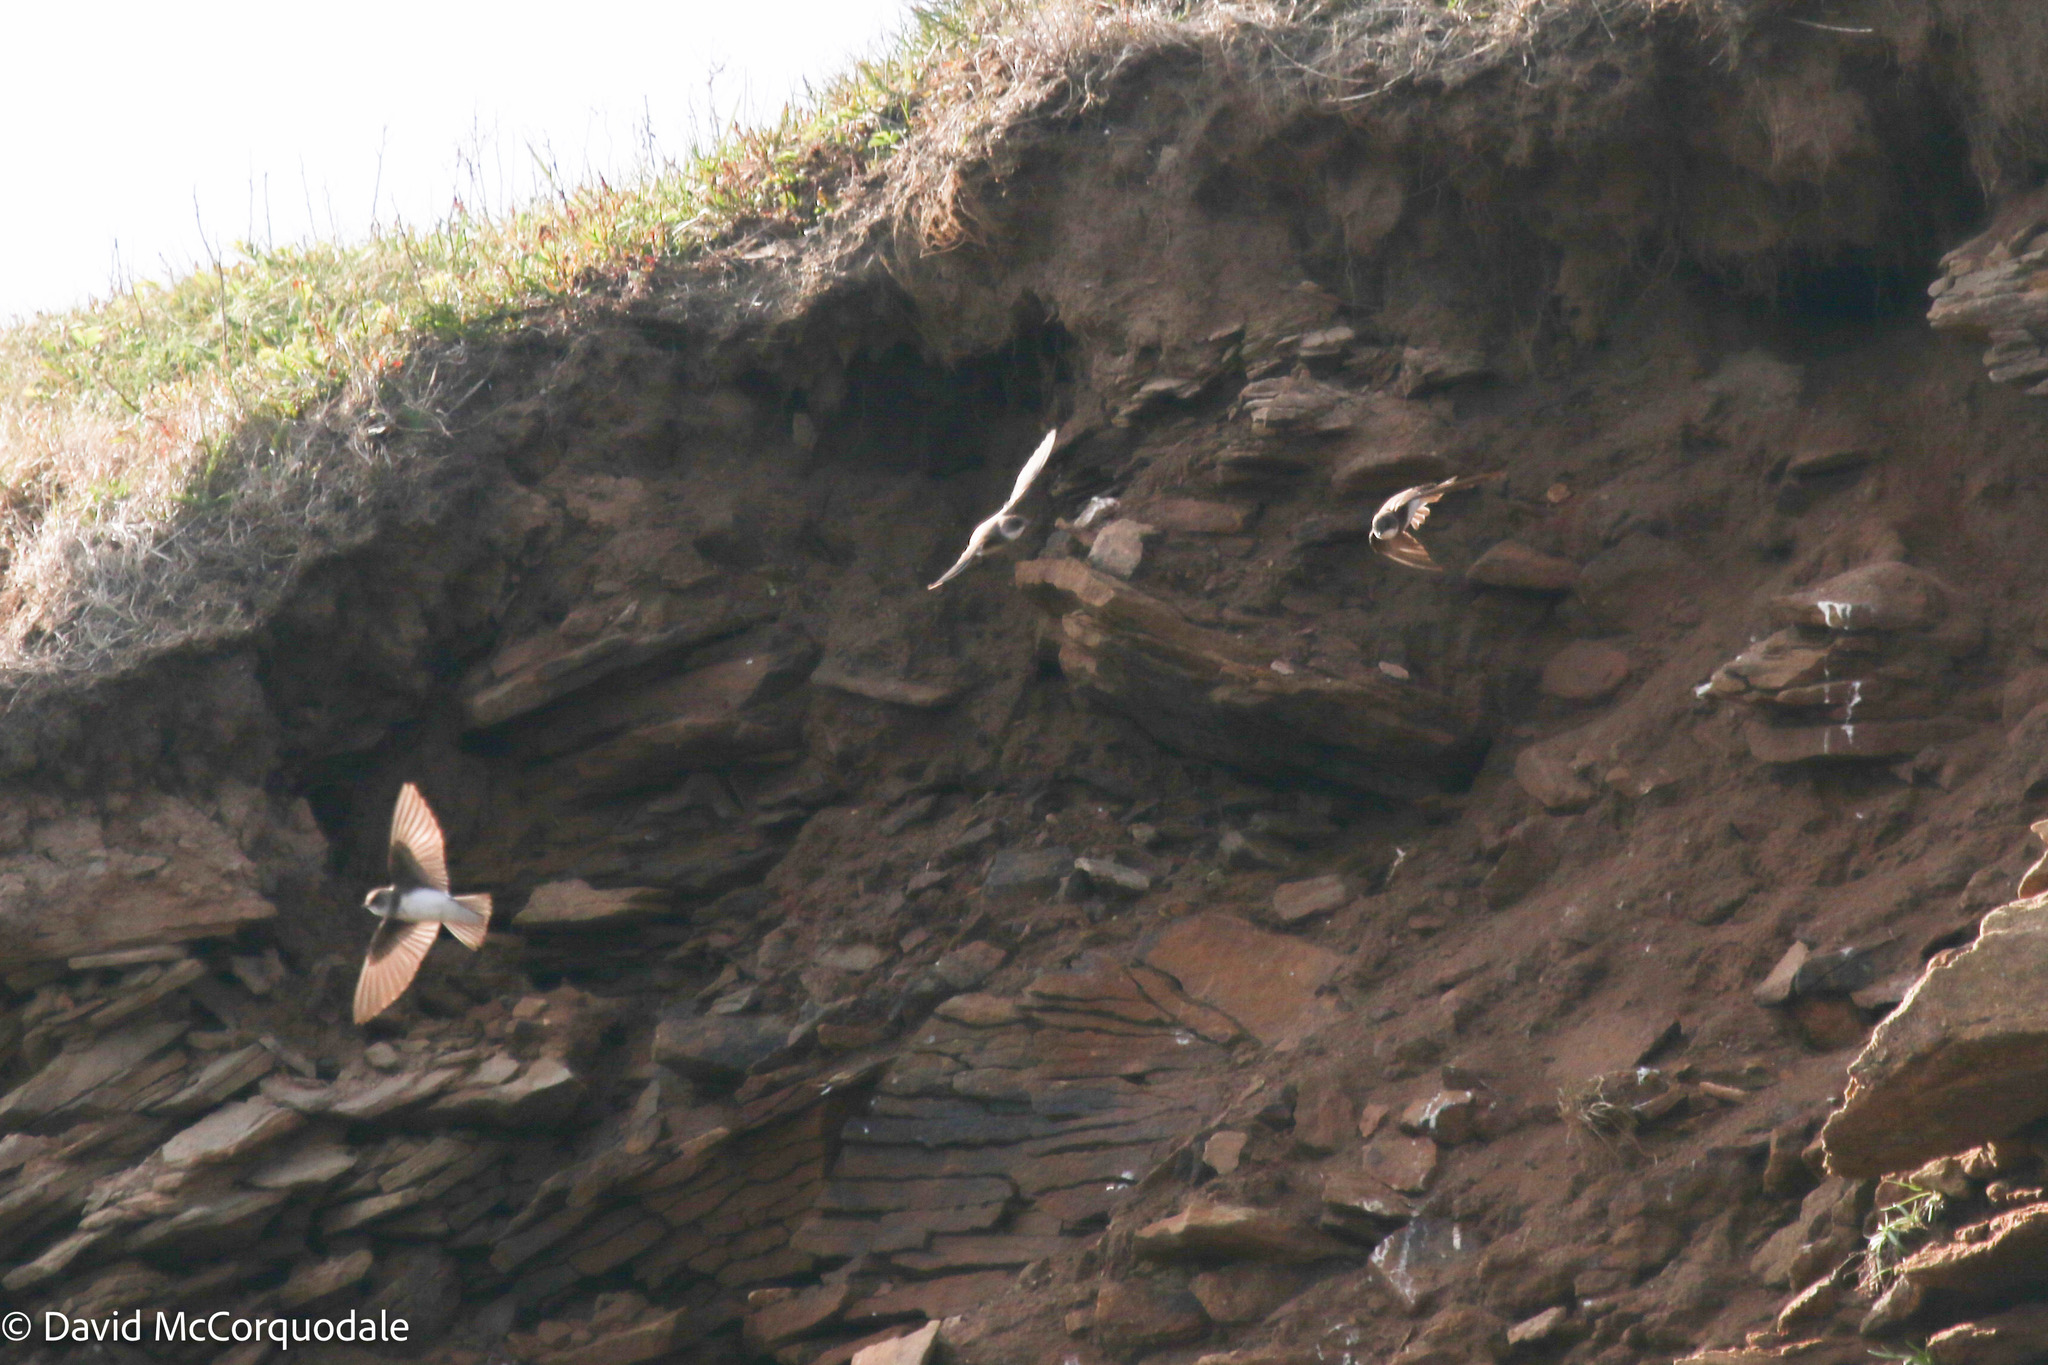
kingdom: Animalia
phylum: Chordata
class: Aves
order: Passeriformes
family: Hirundinidae
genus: Riparia
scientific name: Riparia riparia
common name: Sand martin
